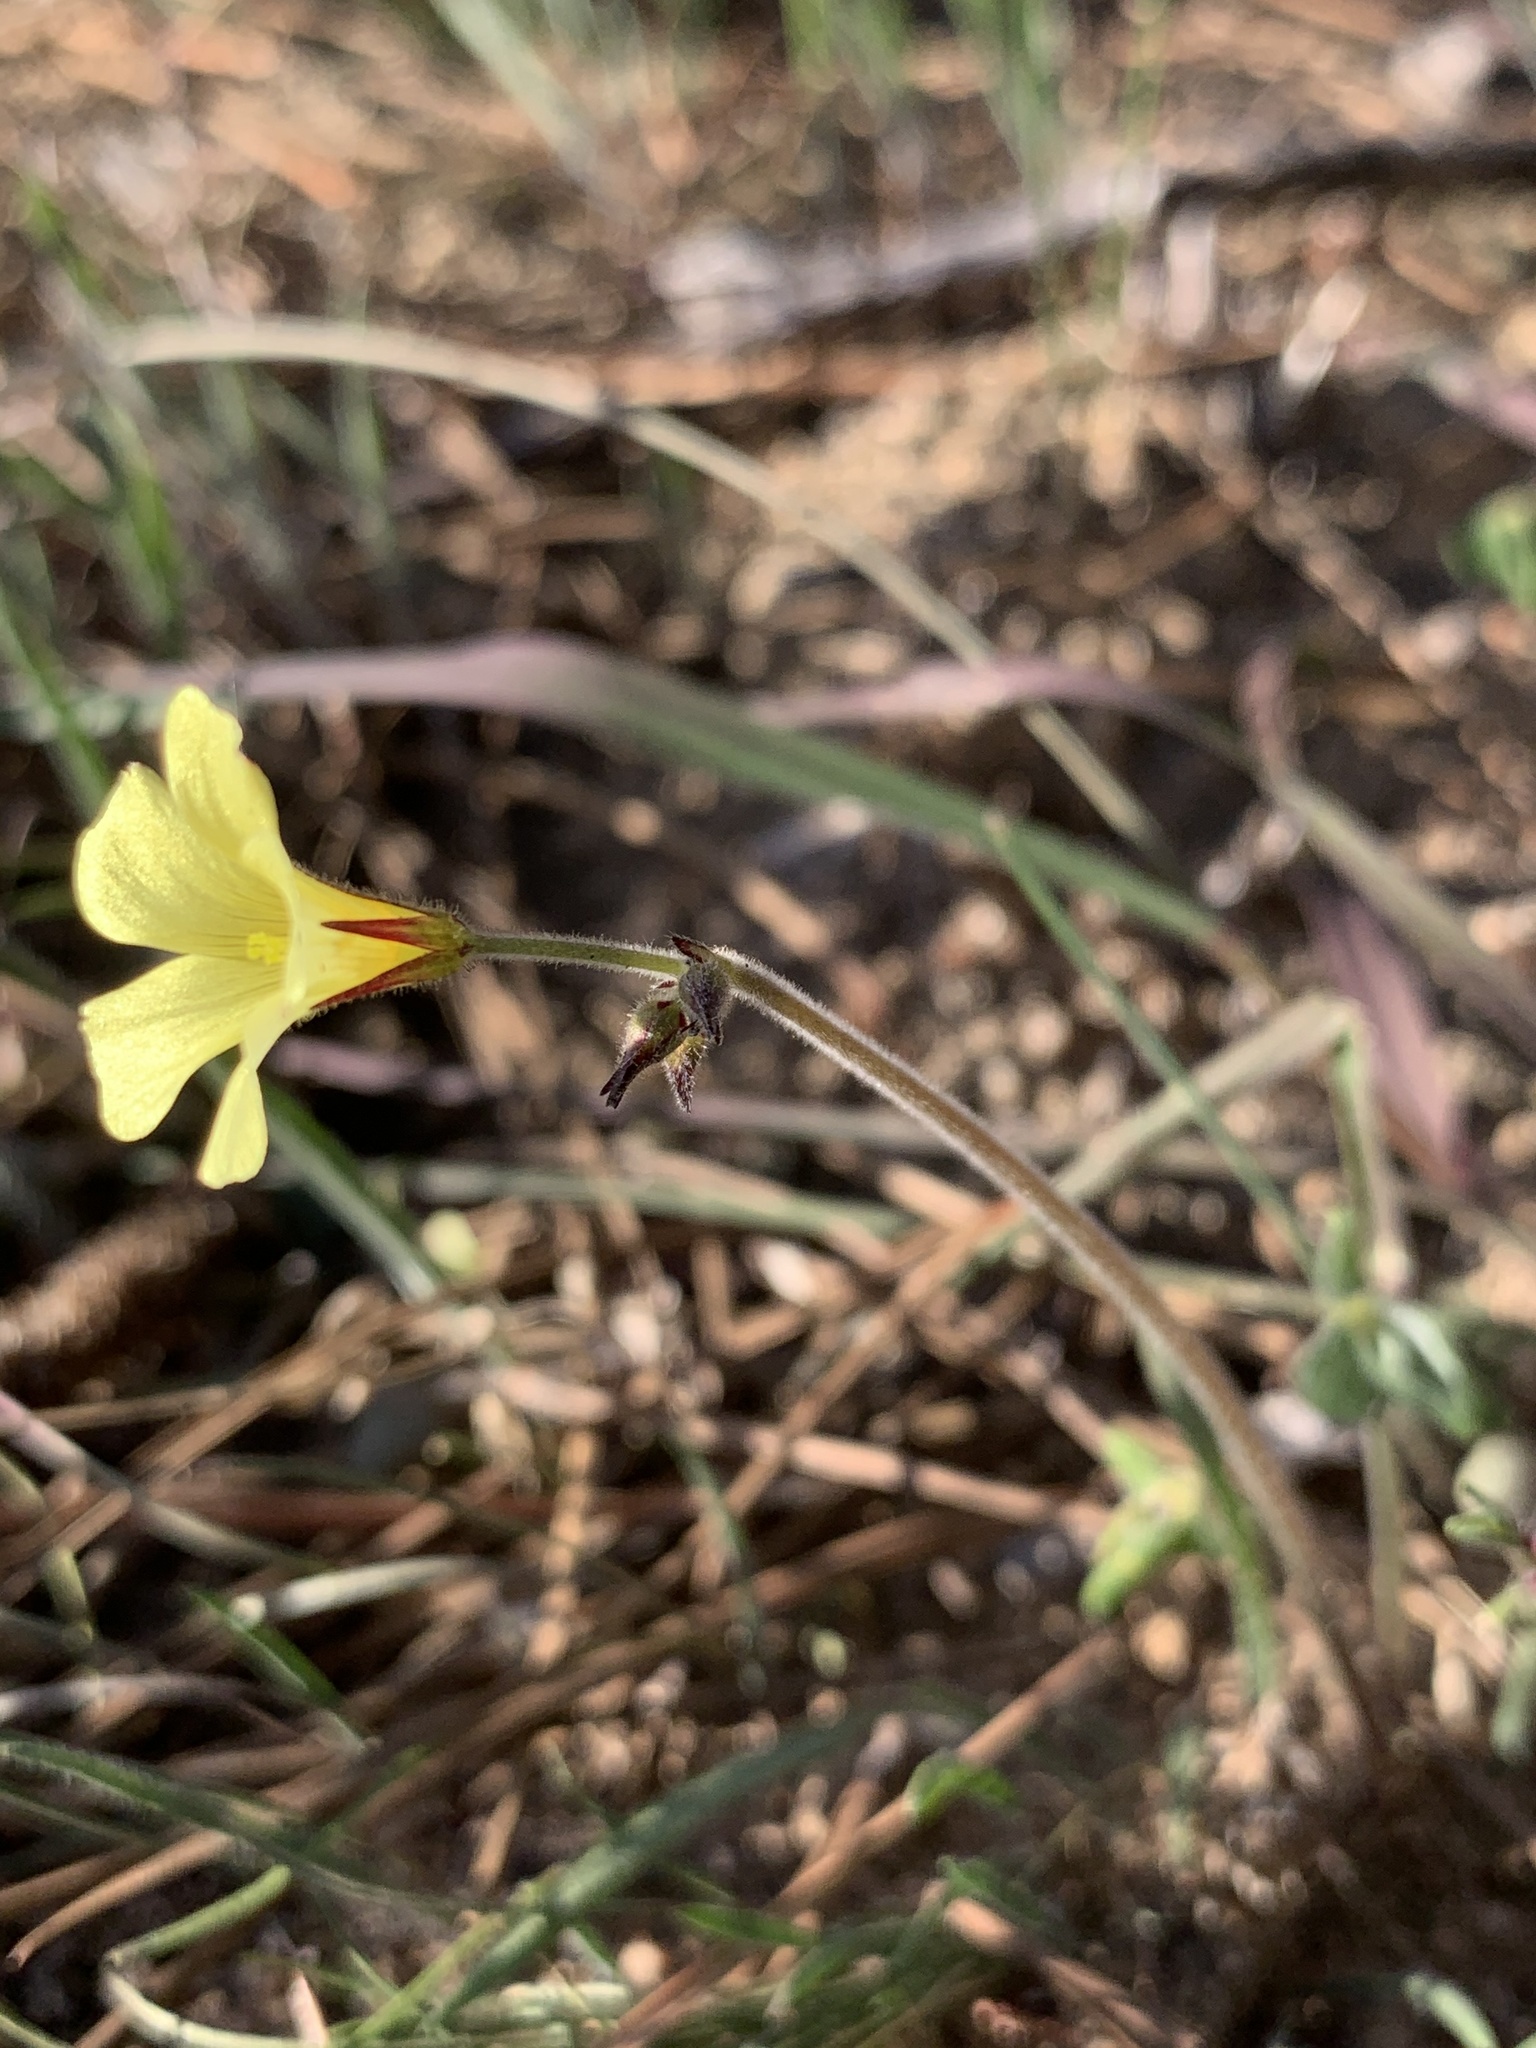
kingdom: Plantae
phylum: Tracheophyta
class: Magnoliopsida
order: Oxalidales
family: Oxalidaceae
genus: Oxalis
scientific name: Oxalis pes-caprae
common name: Bermuda-buttercup
